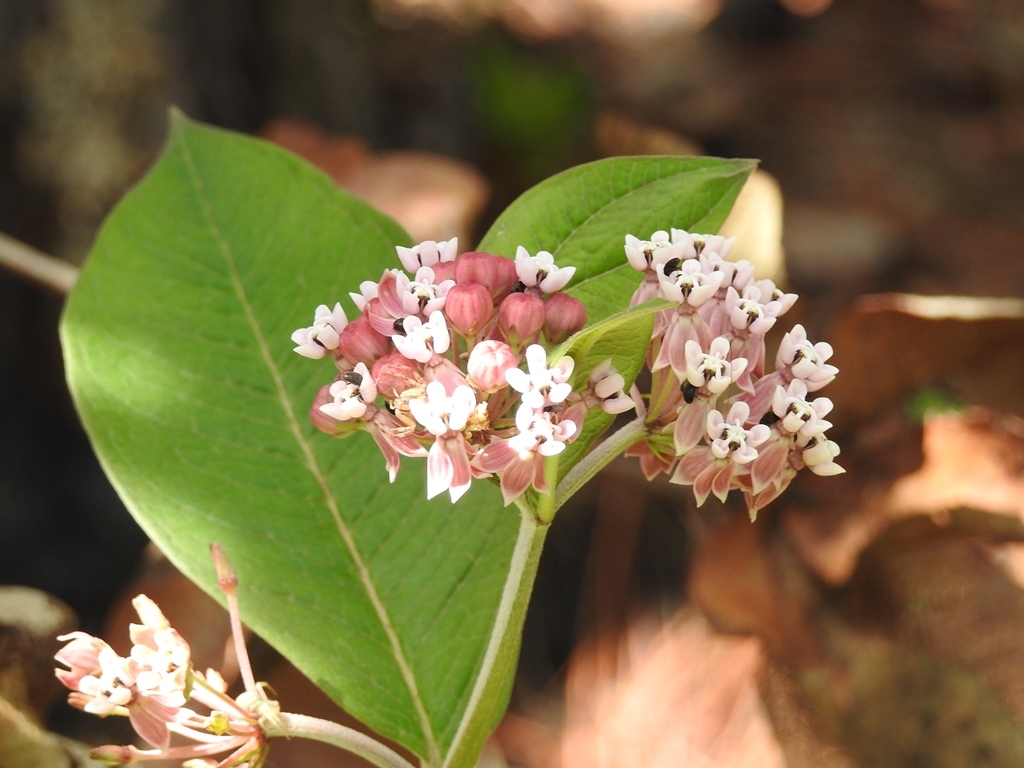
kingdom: Plantae
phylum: Tracheophyta
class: Magnoliopsida
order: Gentianales
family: Apocynaceae
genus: Asclepias
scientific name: Asclepias pellucida
